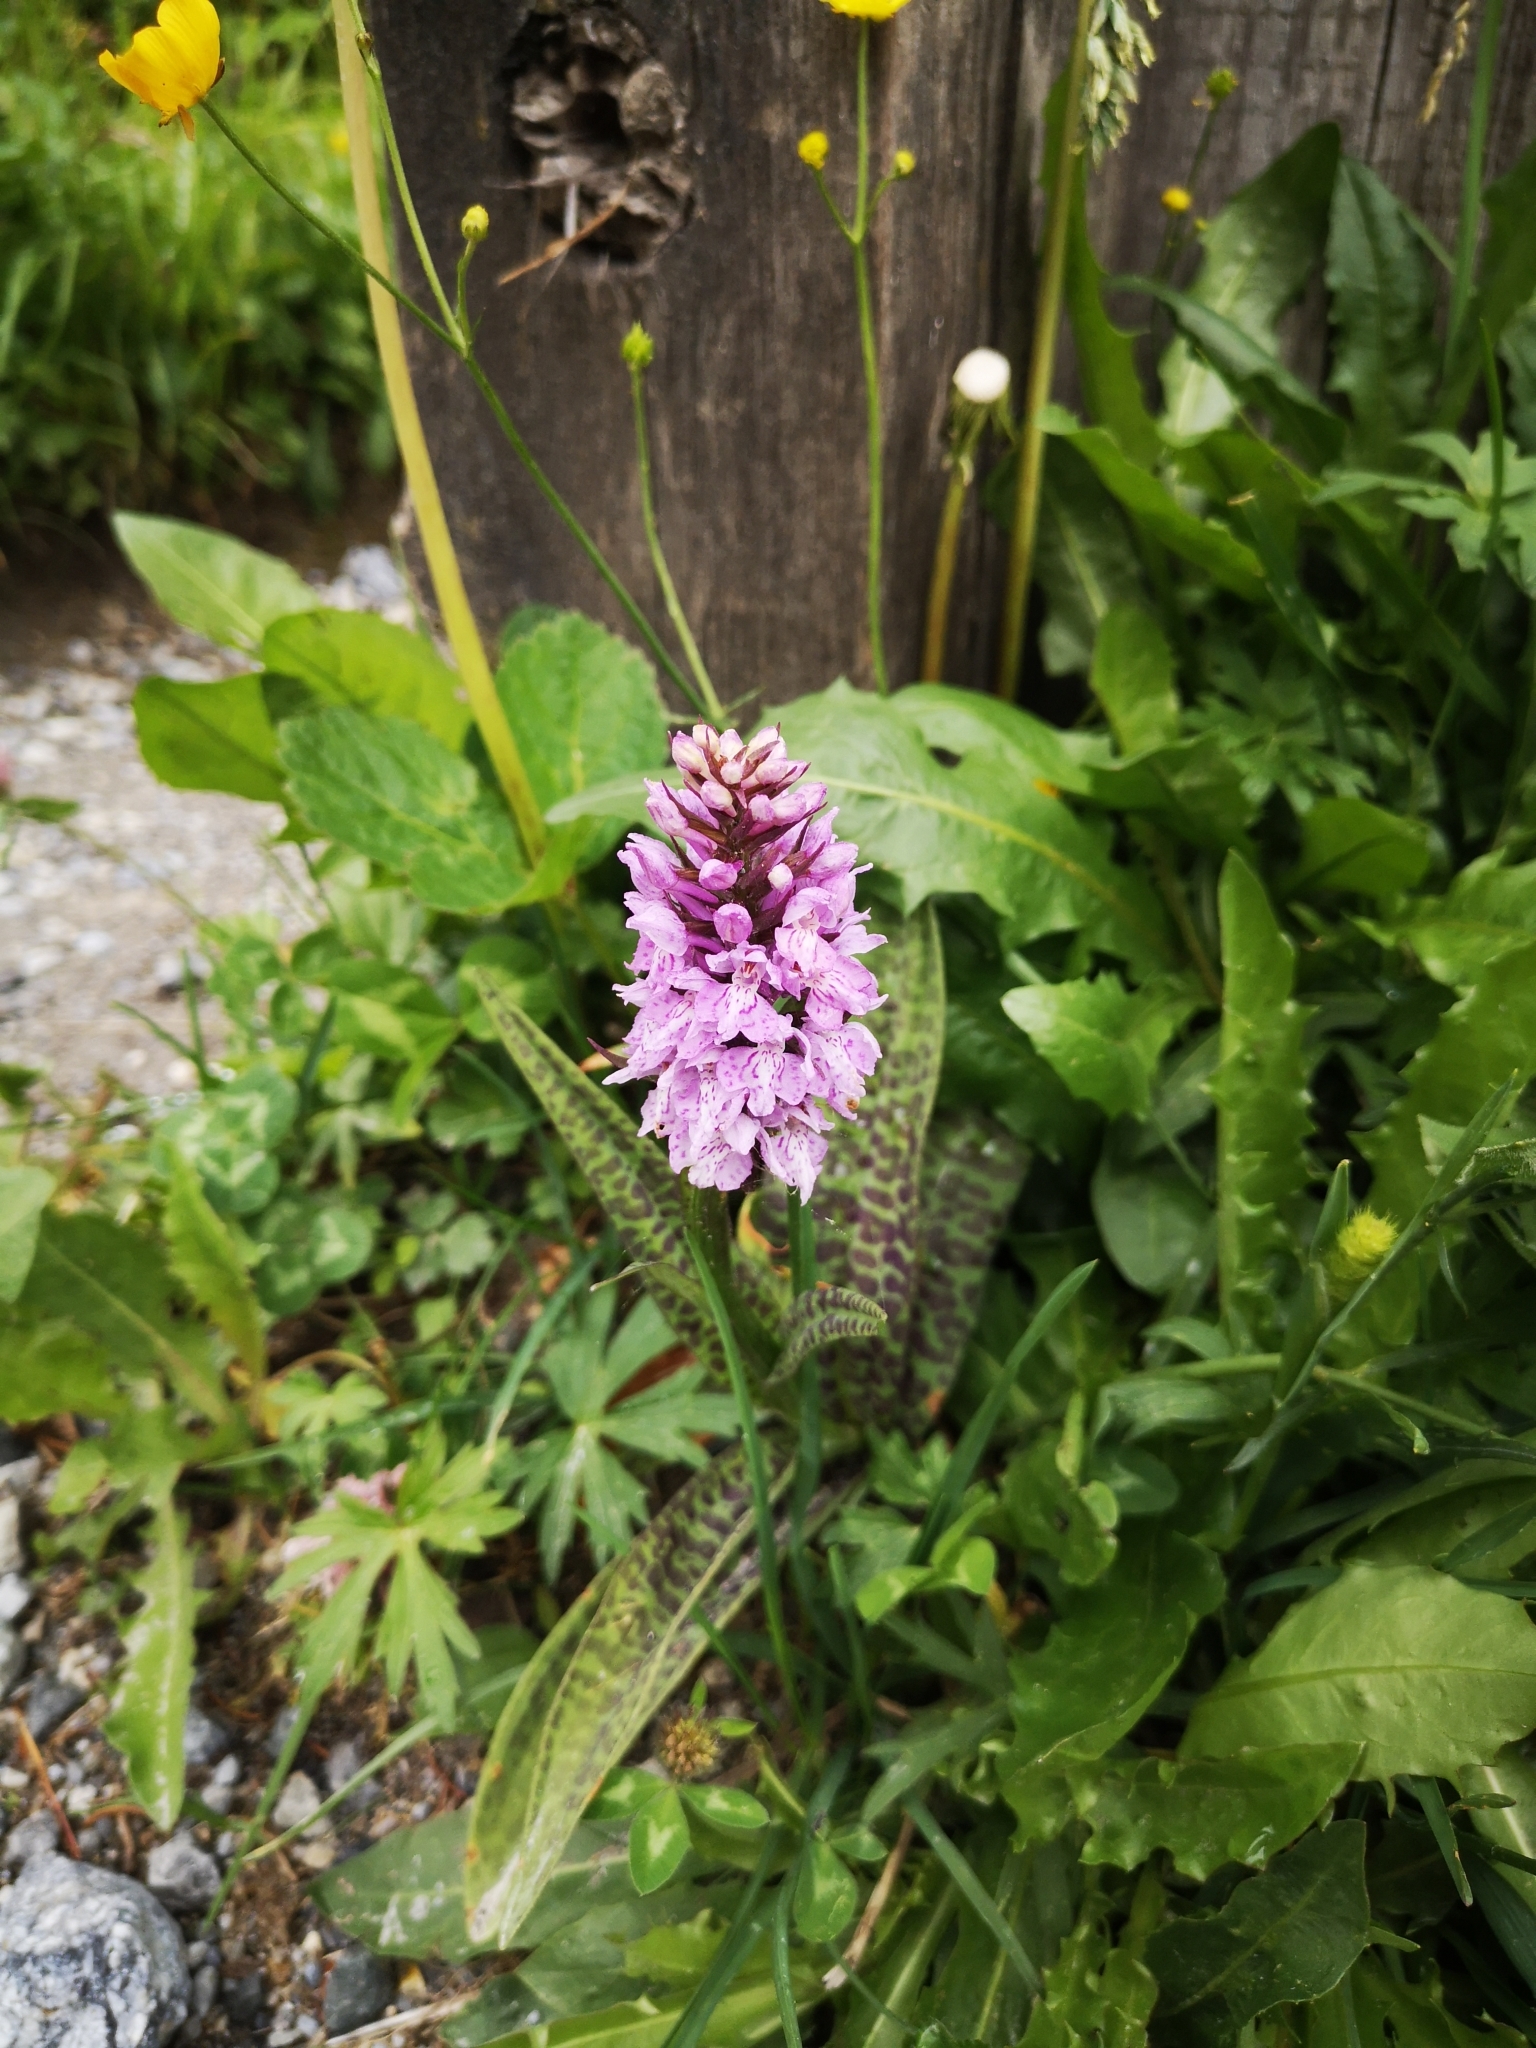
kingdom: Plantae
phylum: Tracheophyta
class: Liliopsida
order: Asparagales
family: Orchidaceae
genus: Dactylorhiza
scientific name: Dactylorhiza maculata
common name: Heath spotted-orchid
